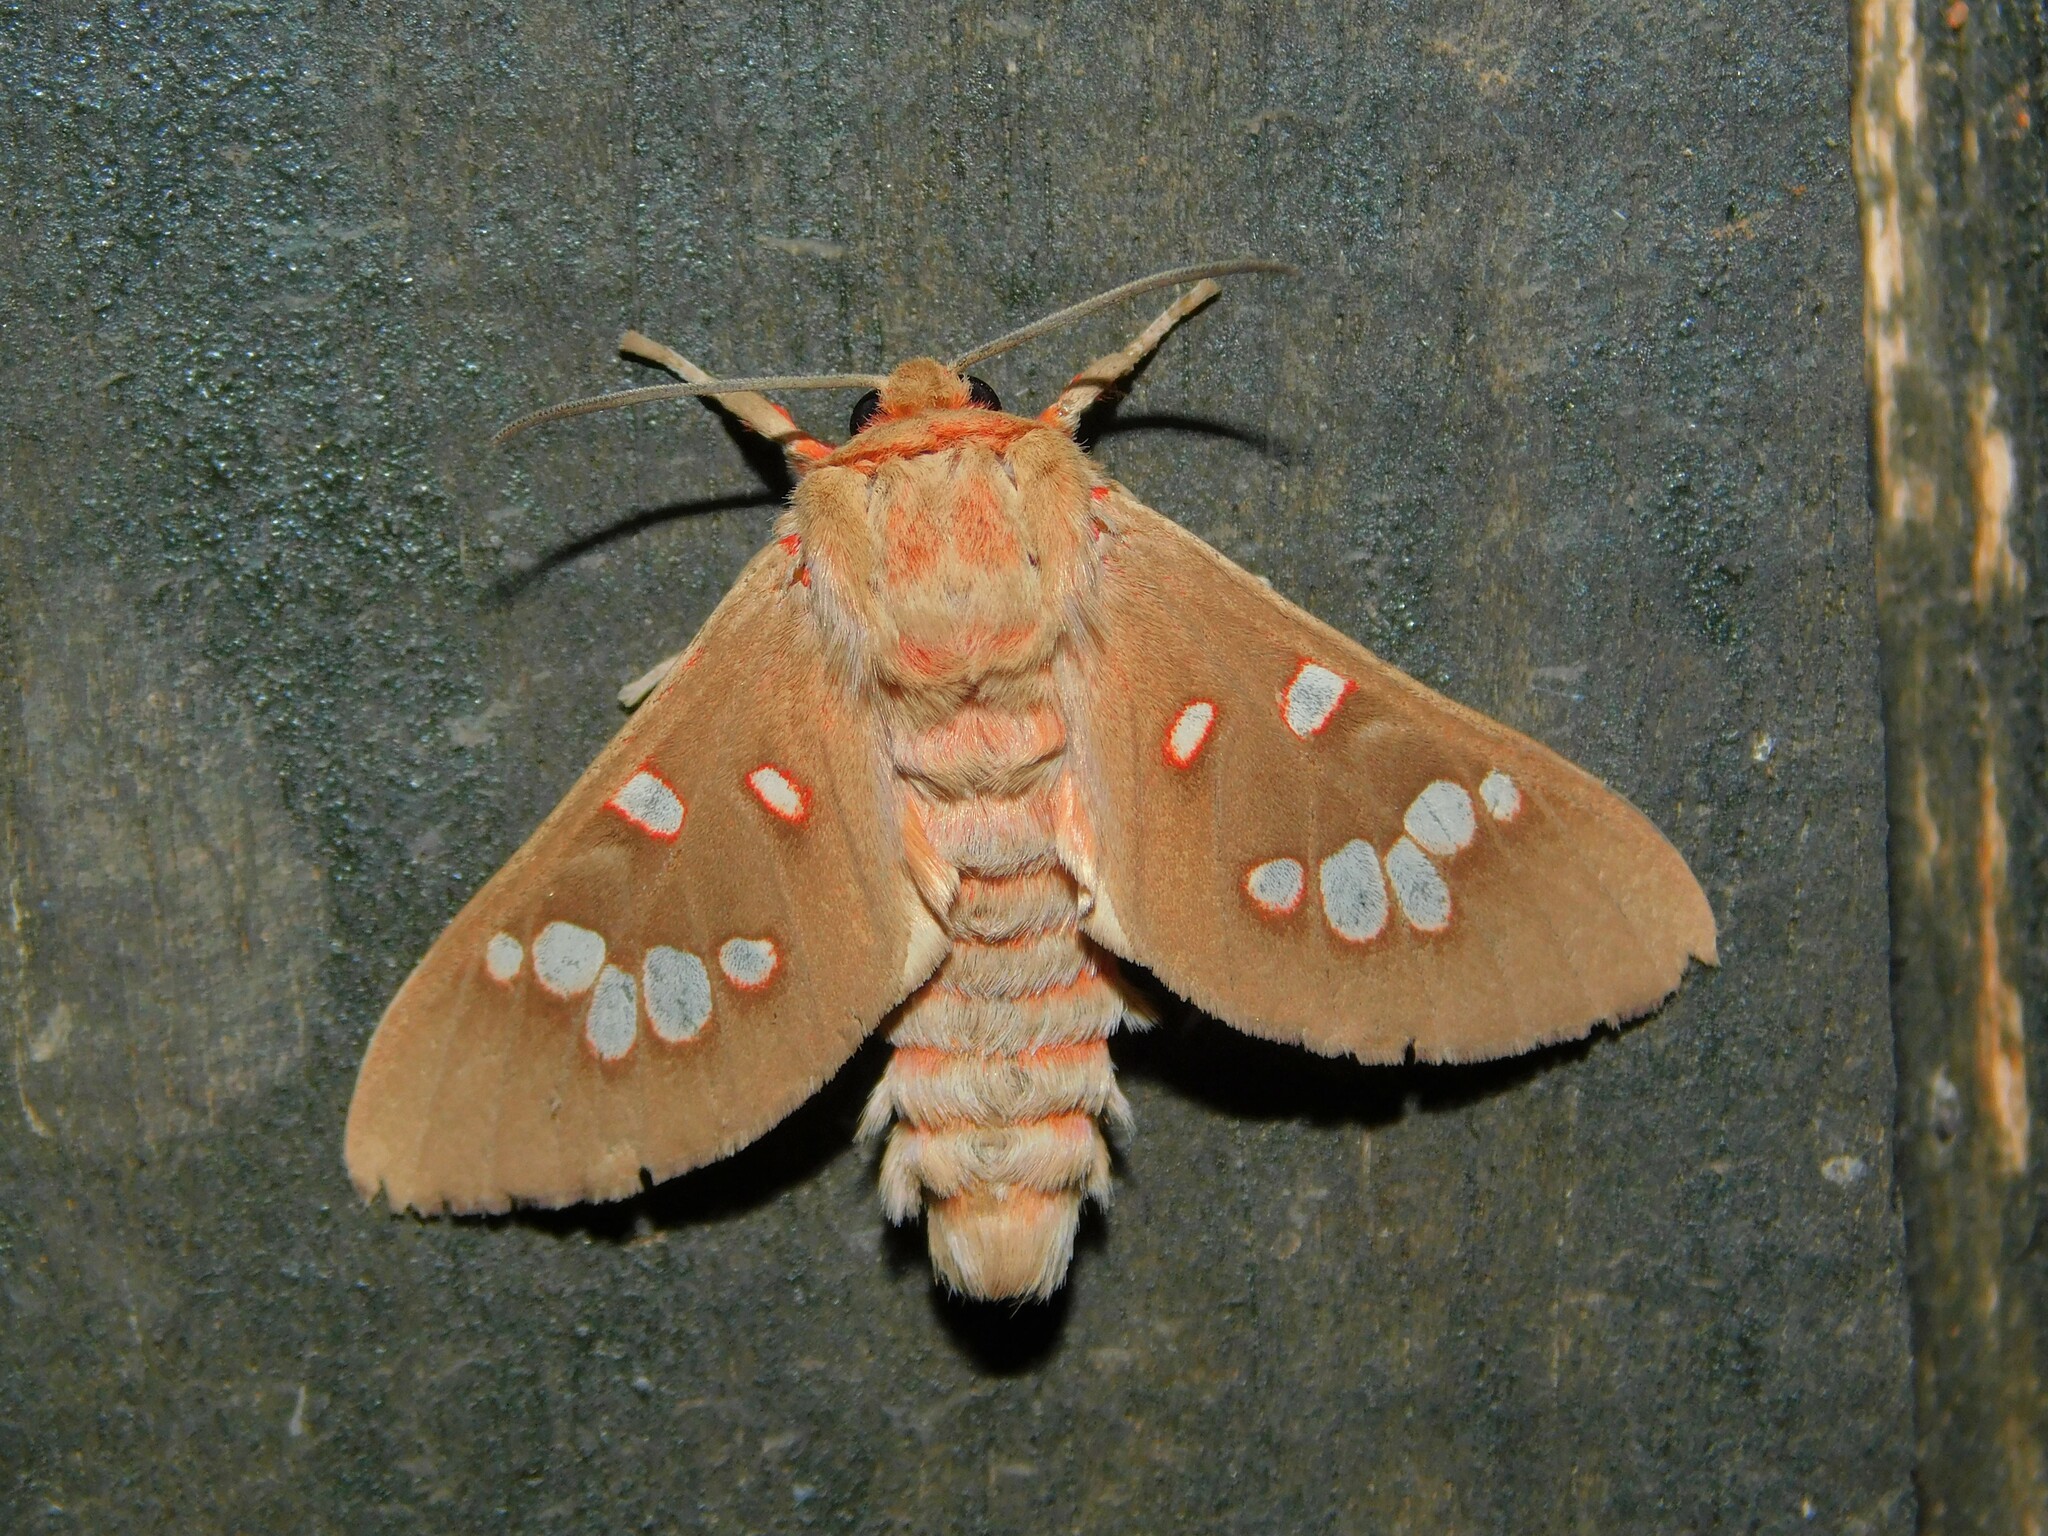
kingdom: Animalia
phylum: Arthropoda
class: Insecta
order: Lepidoptera
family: Erebidae
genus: Balacra
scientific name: Balacra preussi
